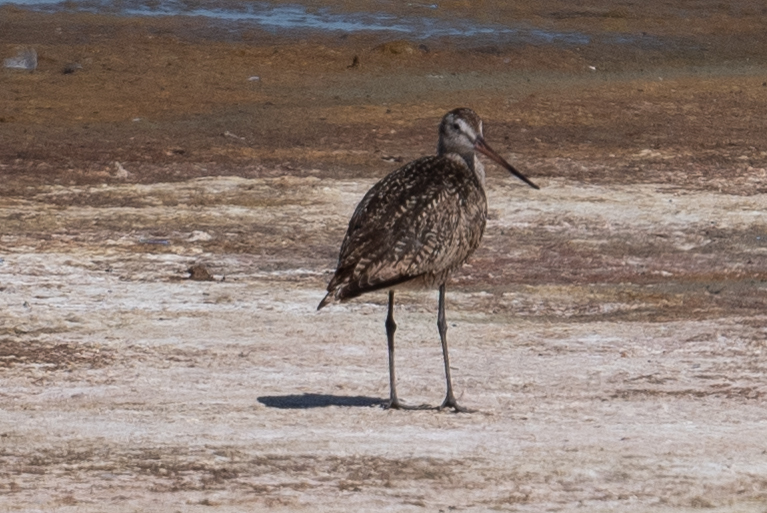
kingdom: Animalia
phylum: Chordata
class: Aves
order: Charadriiformes
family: Scolopacidae
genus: Limosa
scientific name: Limosa fedoa
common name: Marbled godwit
